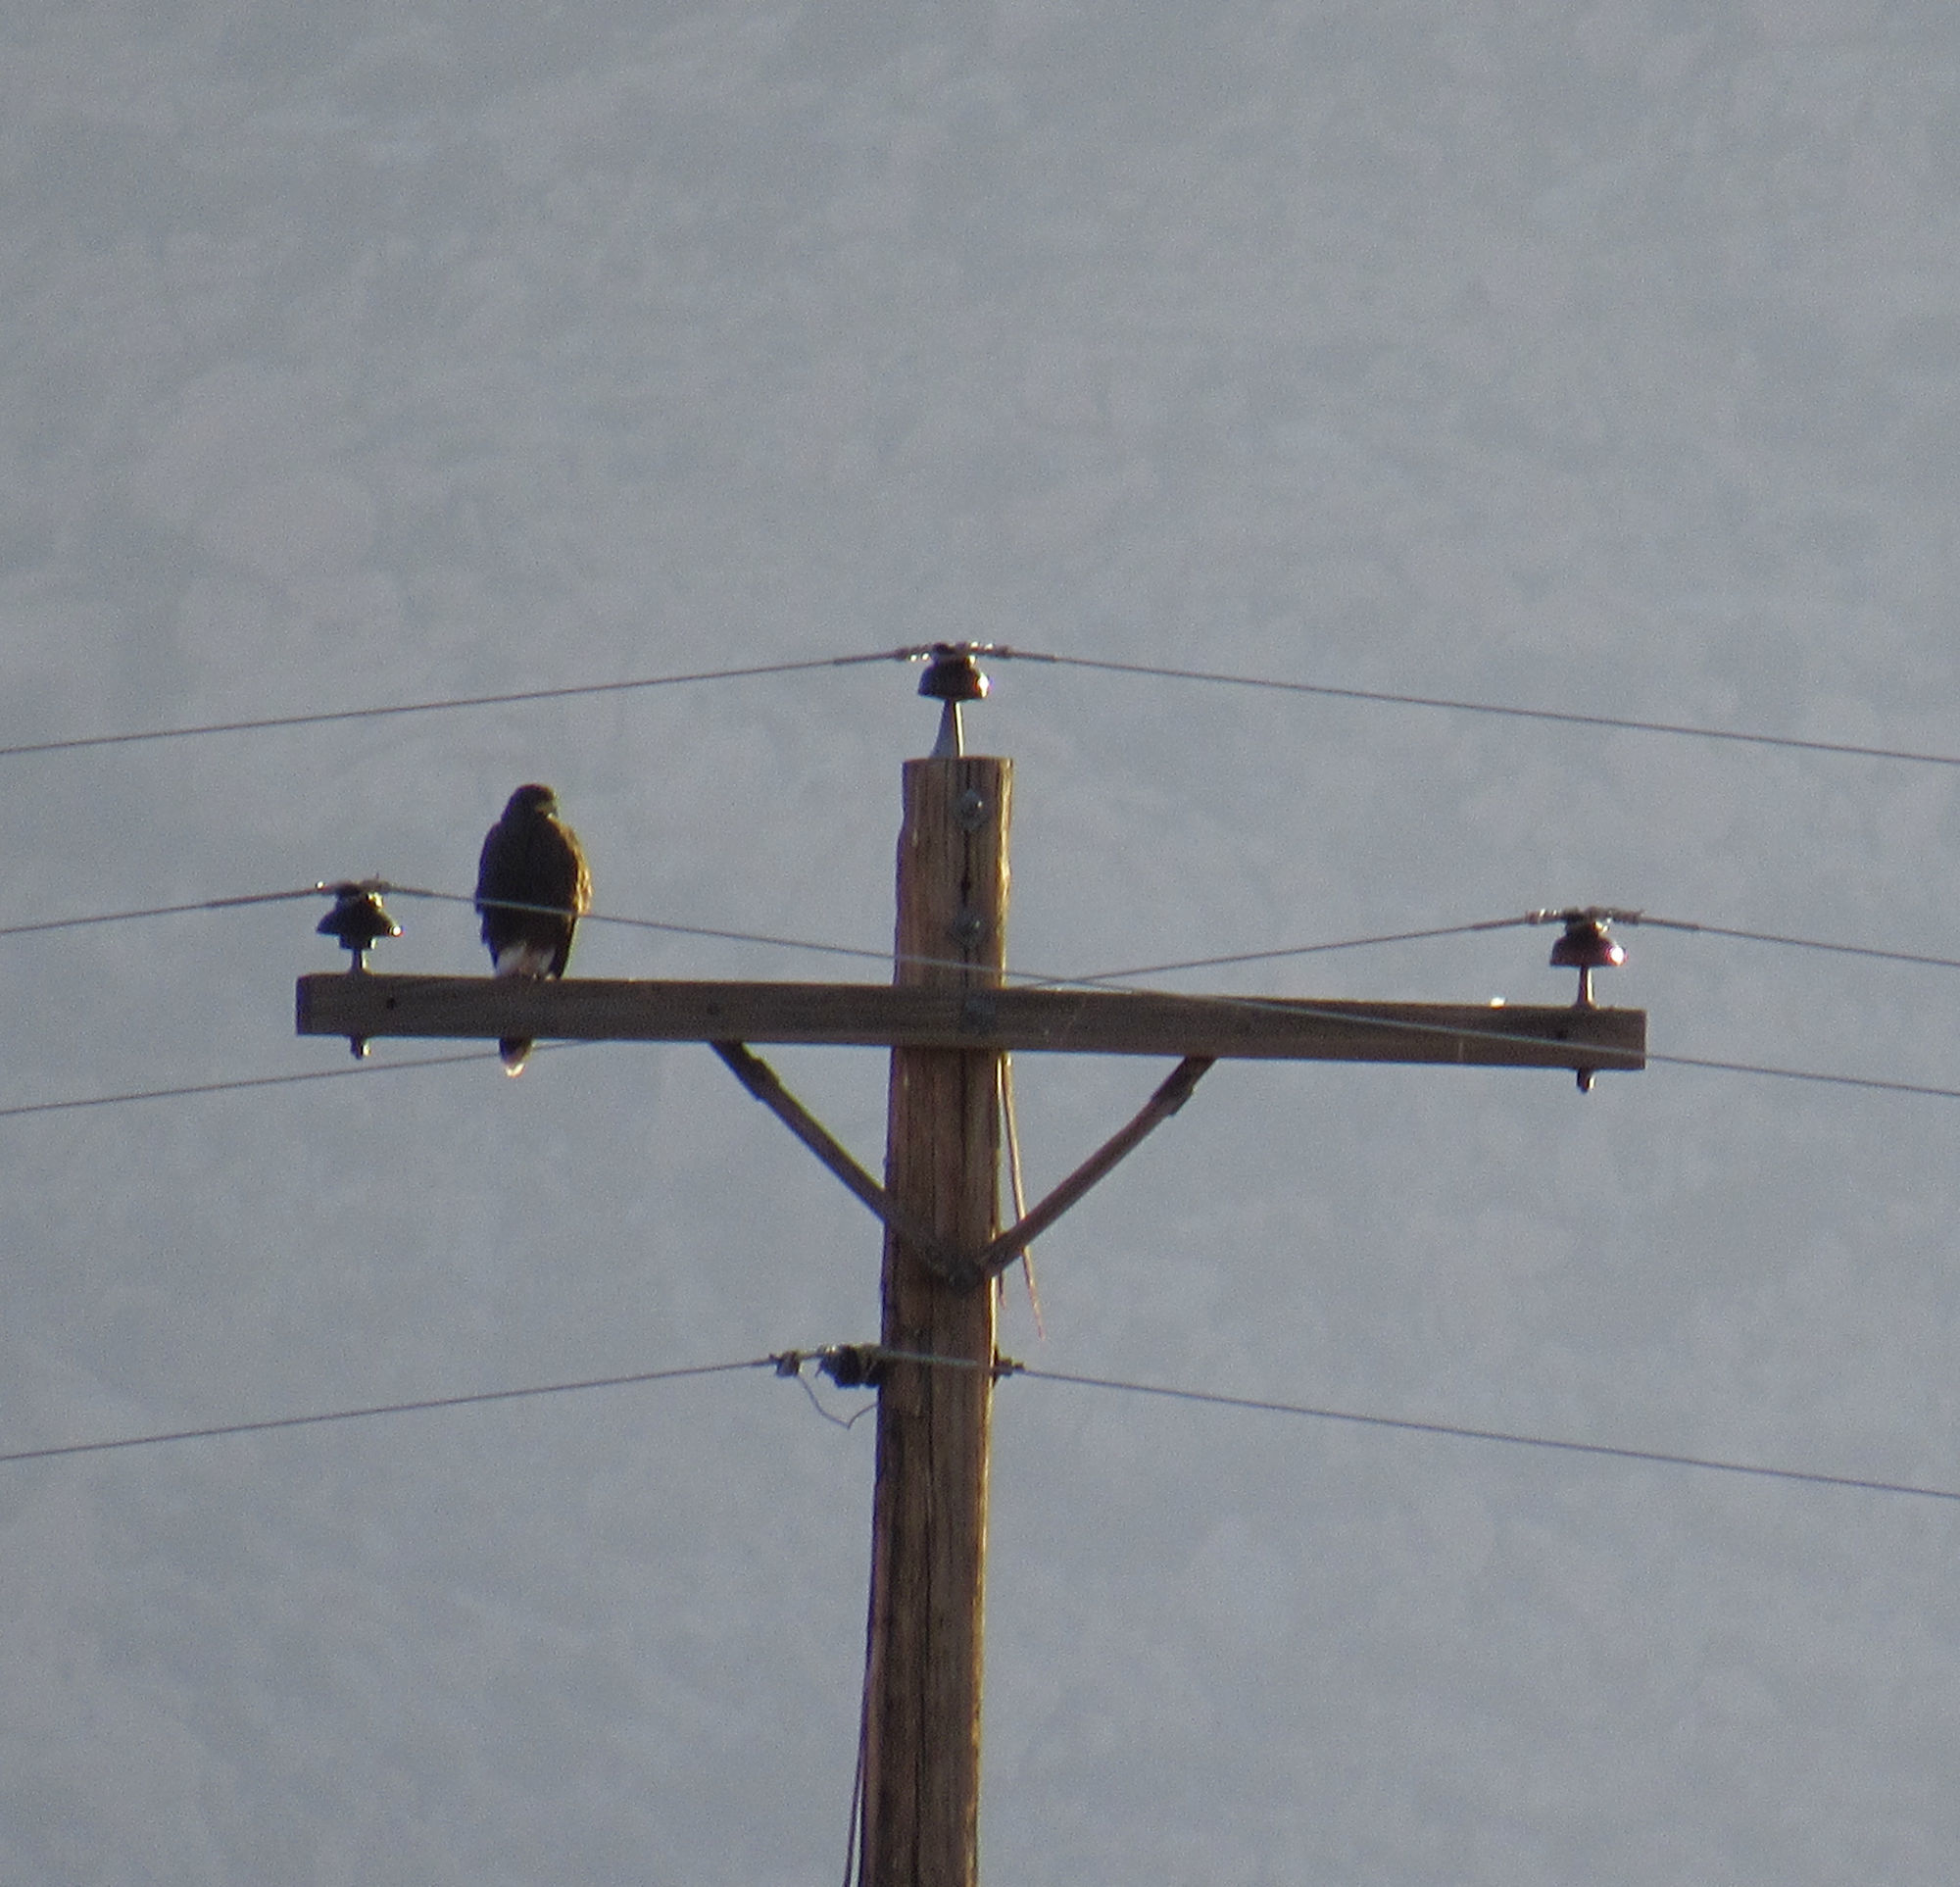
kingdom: Animalia
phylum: Chordata
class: Aves
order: Accipitriformes
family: Accipitridae
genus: Parabuteo
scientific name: Parabuteo unicinctus
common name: Harris's hawk
